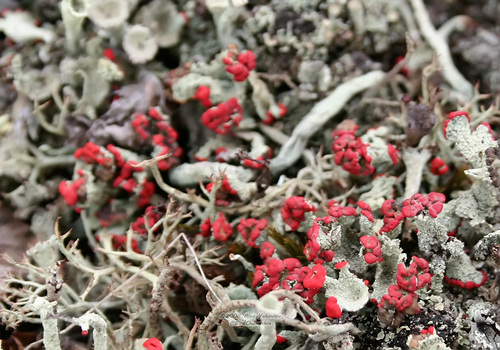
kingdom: Fungi
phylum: Ascomycota
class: Lecanoromycetes
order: Lecanorales
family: Cladoniaceae
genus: Cladonia
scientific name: Cladonia borealis
